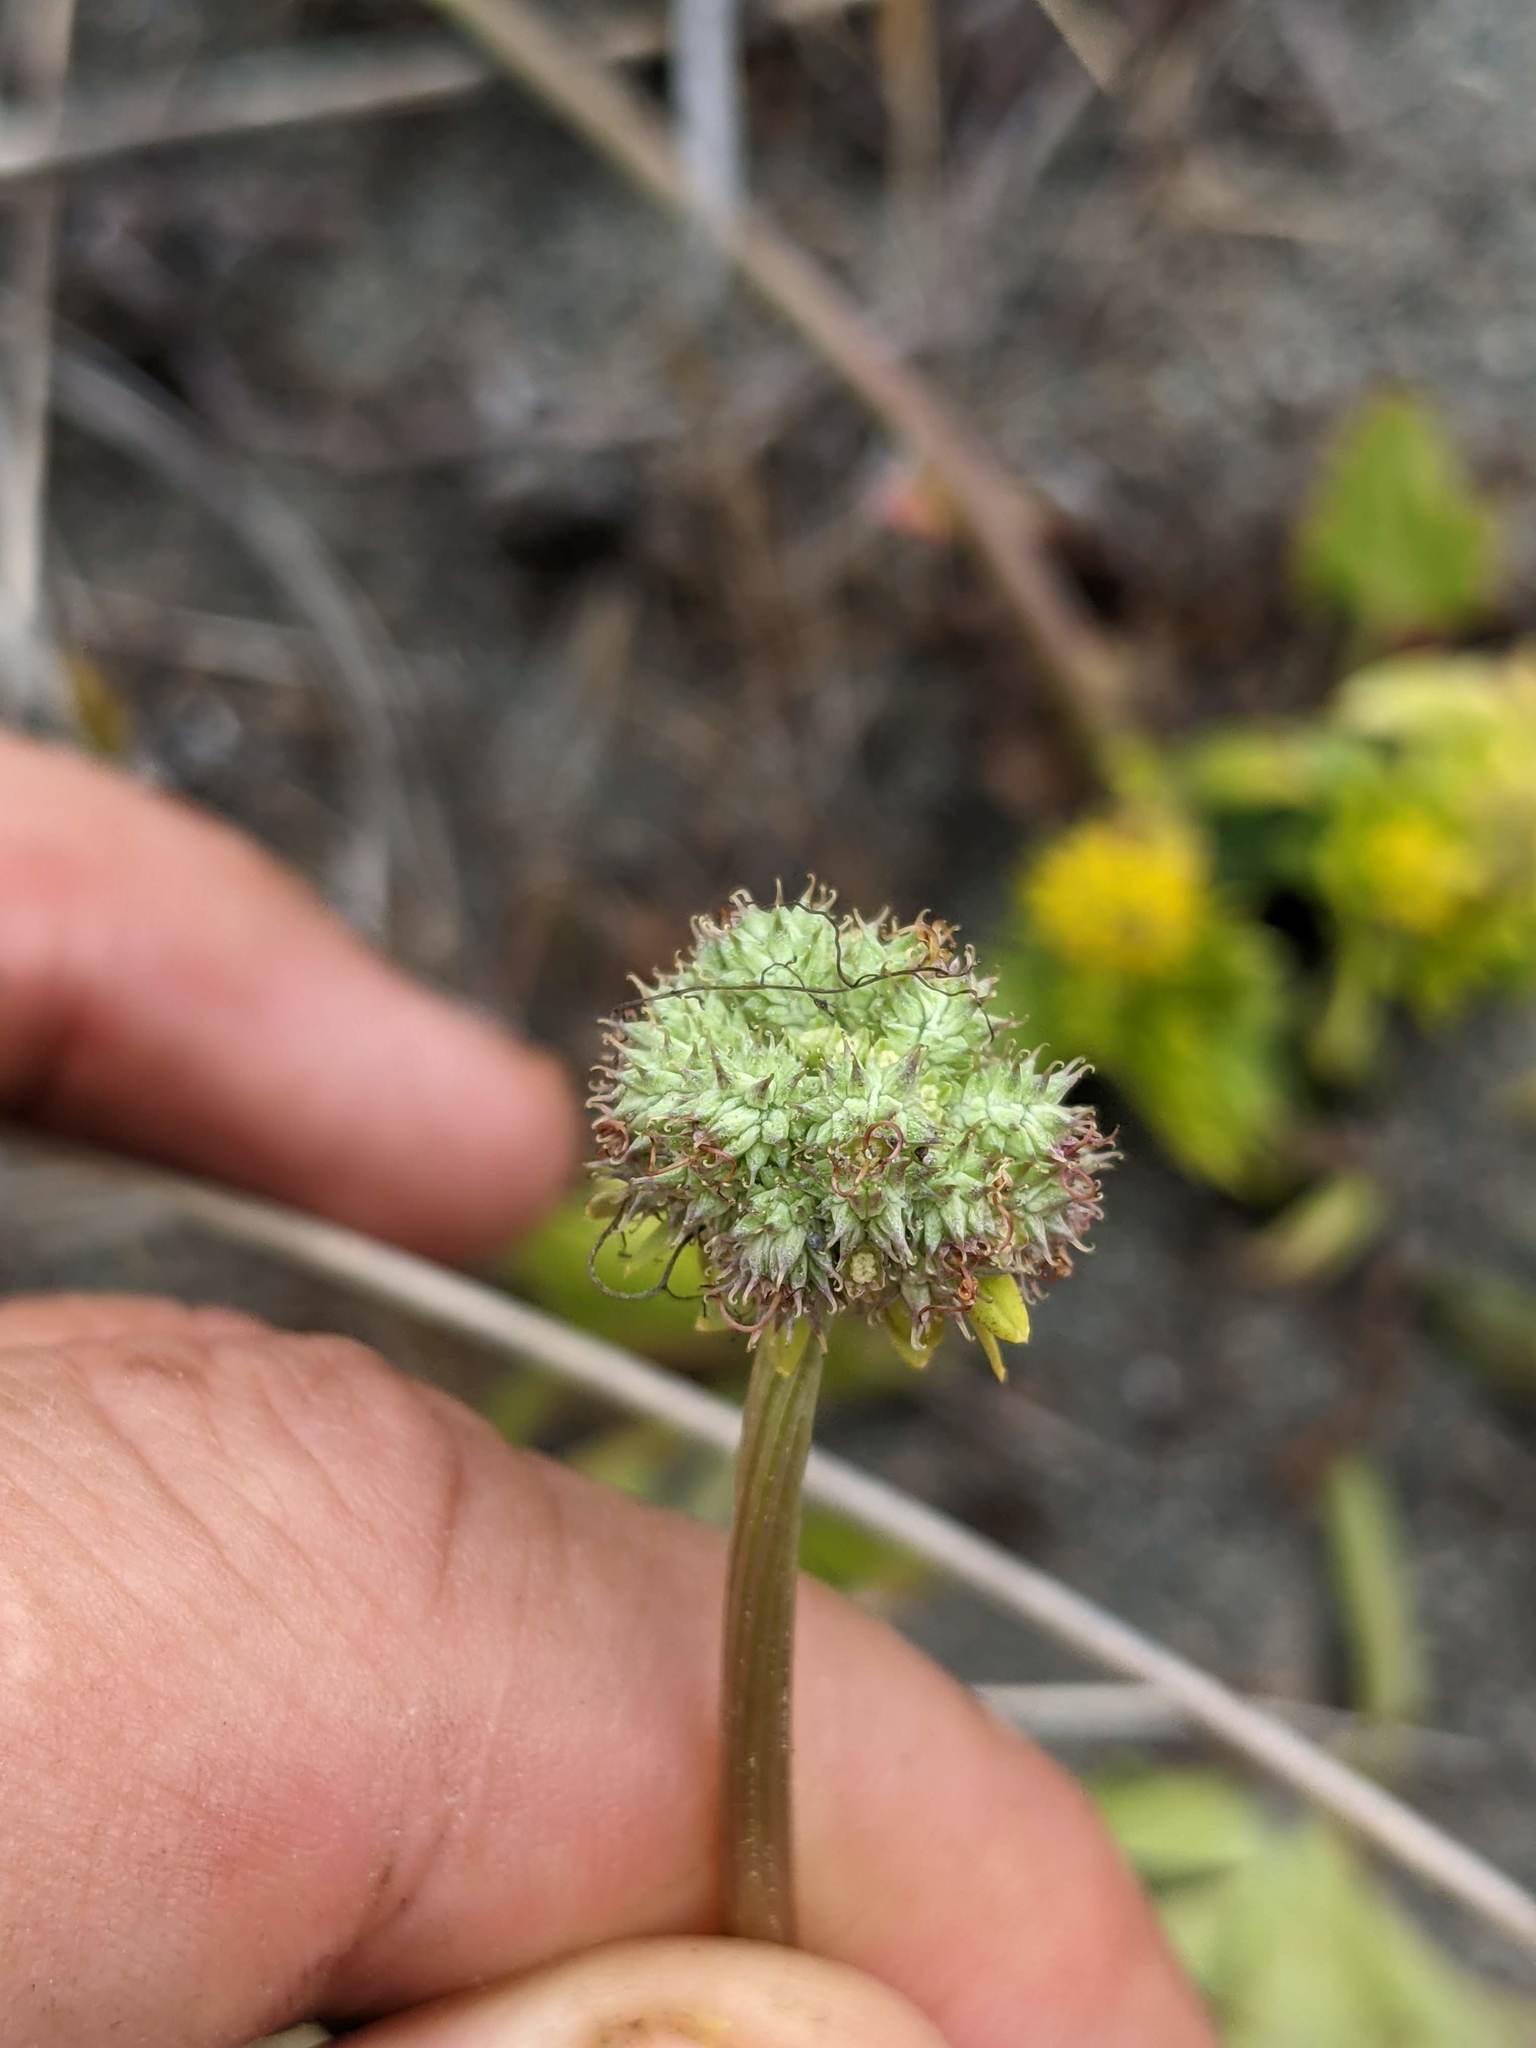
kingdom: Plantae
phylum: Tracheophyta
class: Magnoliopsida
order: Apiales
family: Apiaceae
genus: Sanicula
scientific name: Sanicula arctopoides
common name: Footsteps-of-spring
